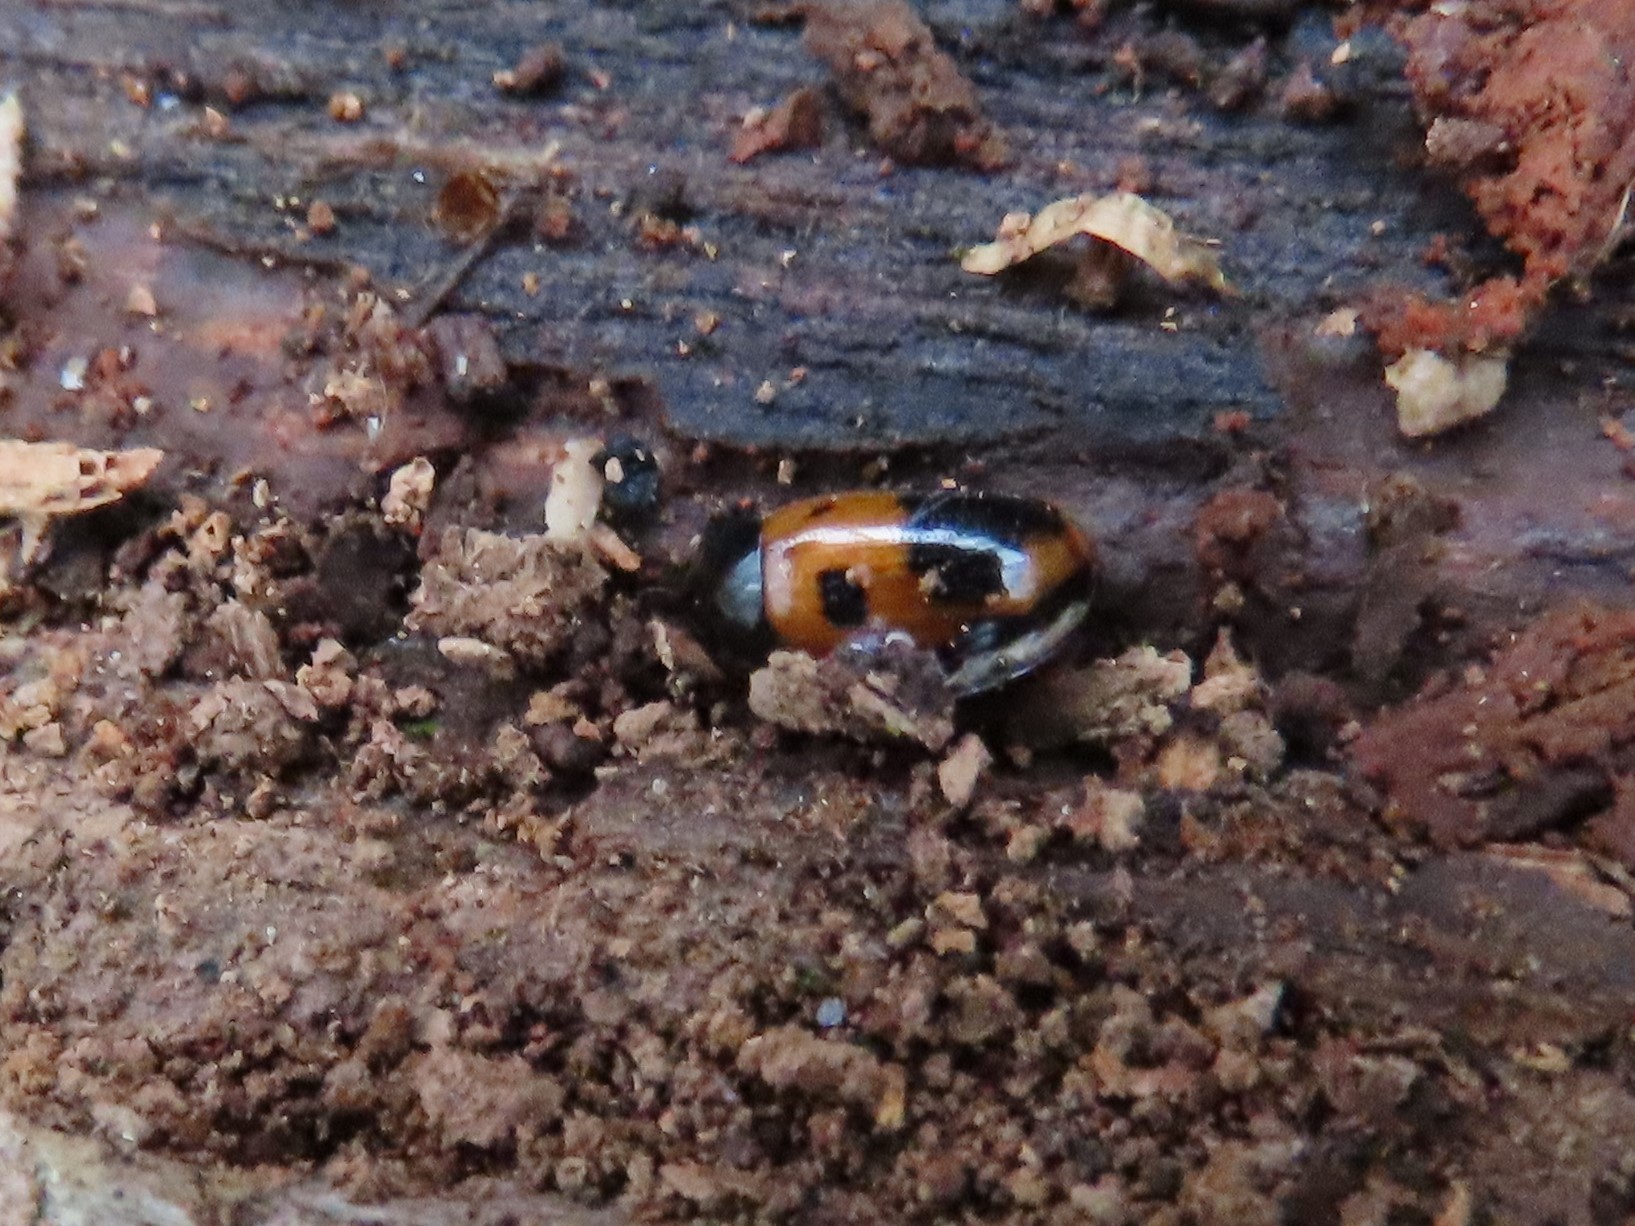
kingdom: Animalia
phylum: Arthropoda
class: Insecta
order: Coleoptera
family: Tenebrionidae
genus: Diaperis
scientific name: Diaperis maculata
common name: Darkling beetle
